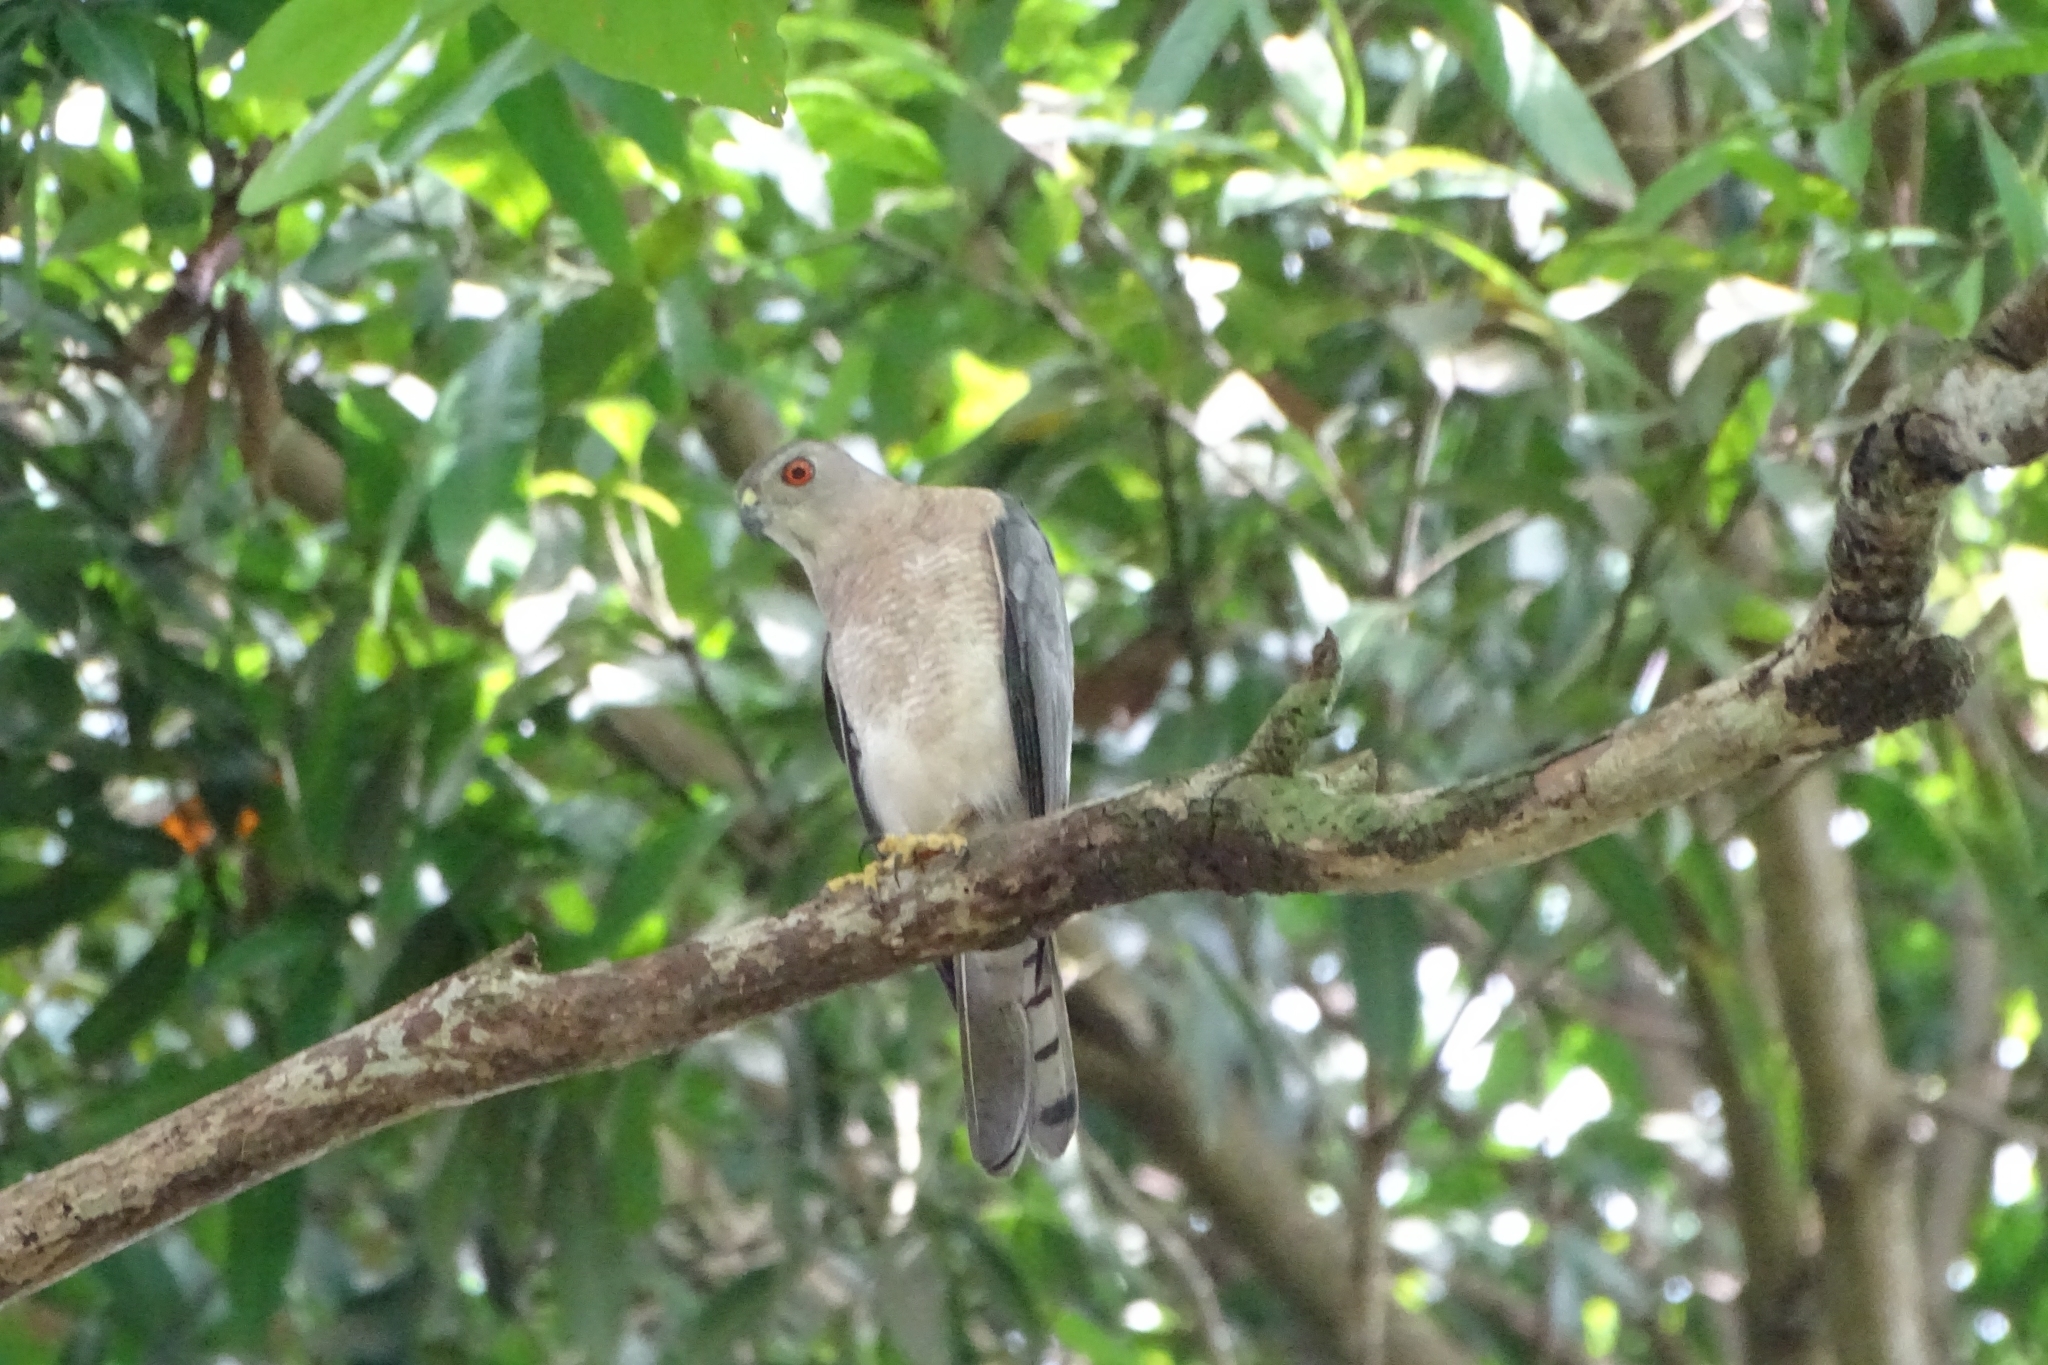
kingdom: Animalia
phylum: Chordata
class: Aves
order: Accipitriformes
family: Accipitridae
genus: Accipiter
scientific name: Accipiter badius
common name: Shikra
